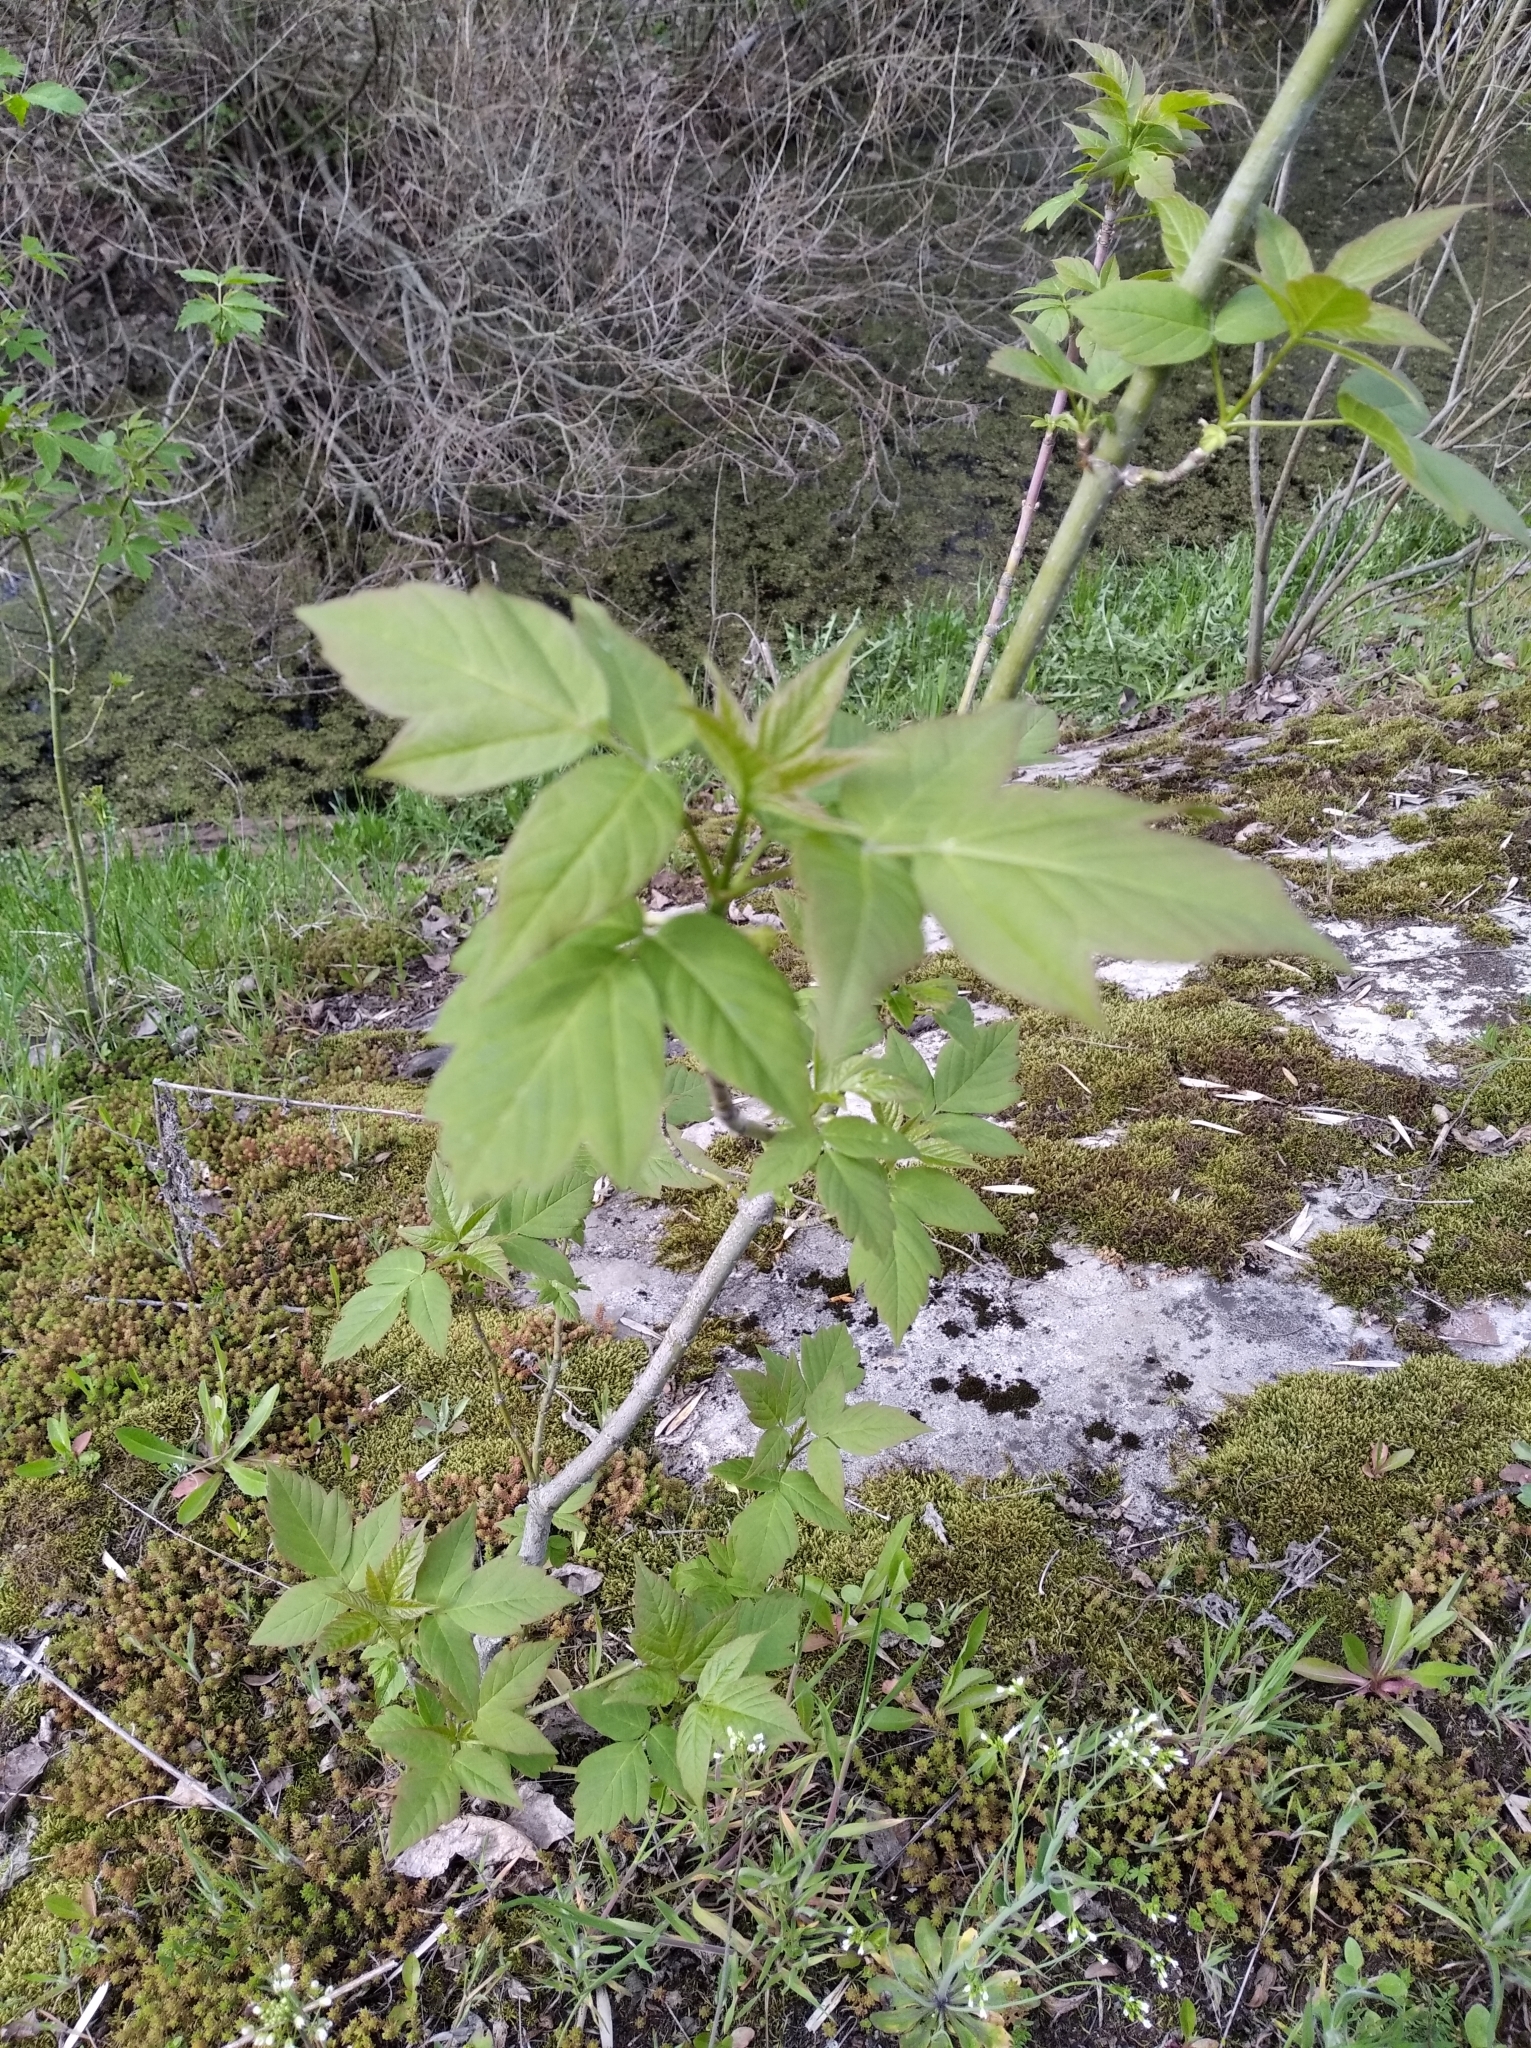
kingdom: Plantae
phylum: Tracheophyta
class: Magnoliopsida
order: Sapindales
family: Sapindaceae
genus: Acer
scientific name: Acer negundo
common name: Ashleaf maple
